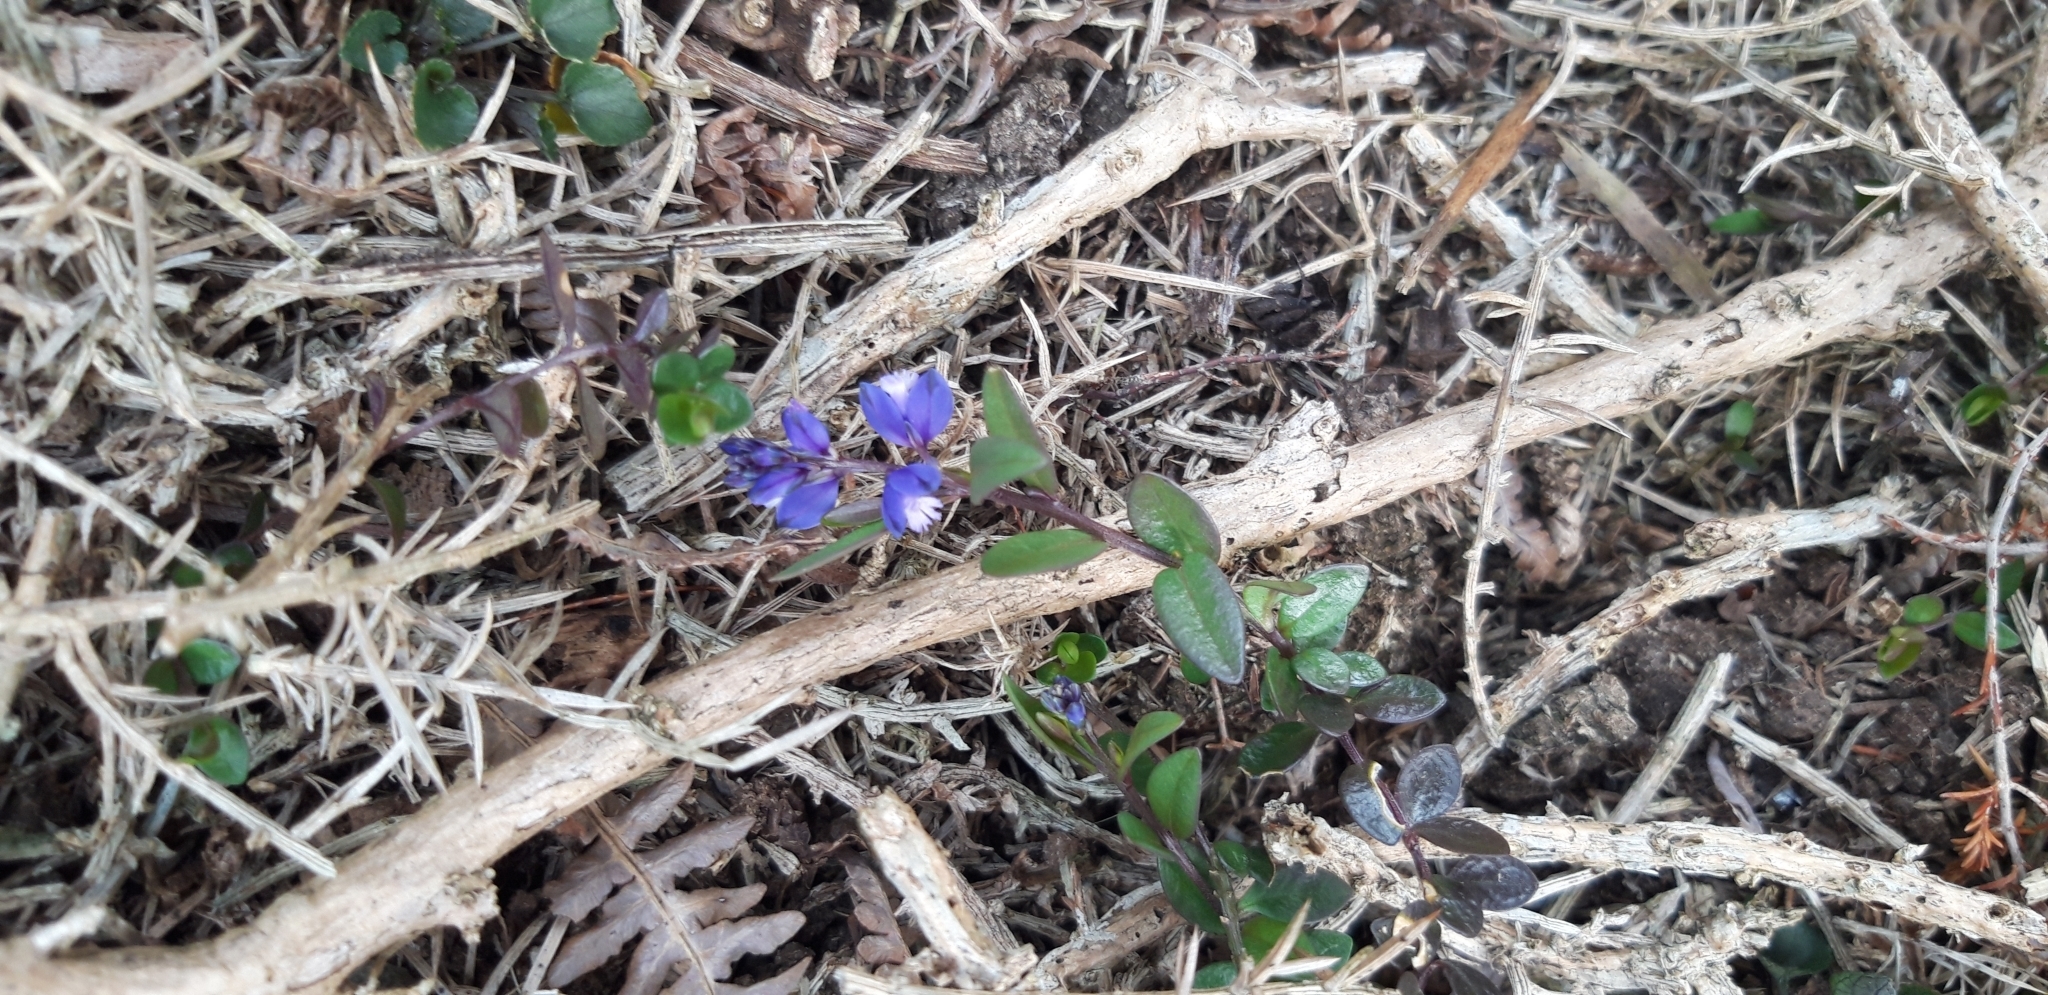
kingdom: Plantae
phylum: Tracheophyta
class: Magnoliopsida
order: Fabales
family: Polygalaceae
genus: Polygala
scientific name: Polygala serpyllifolia
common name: Heath milkwort
